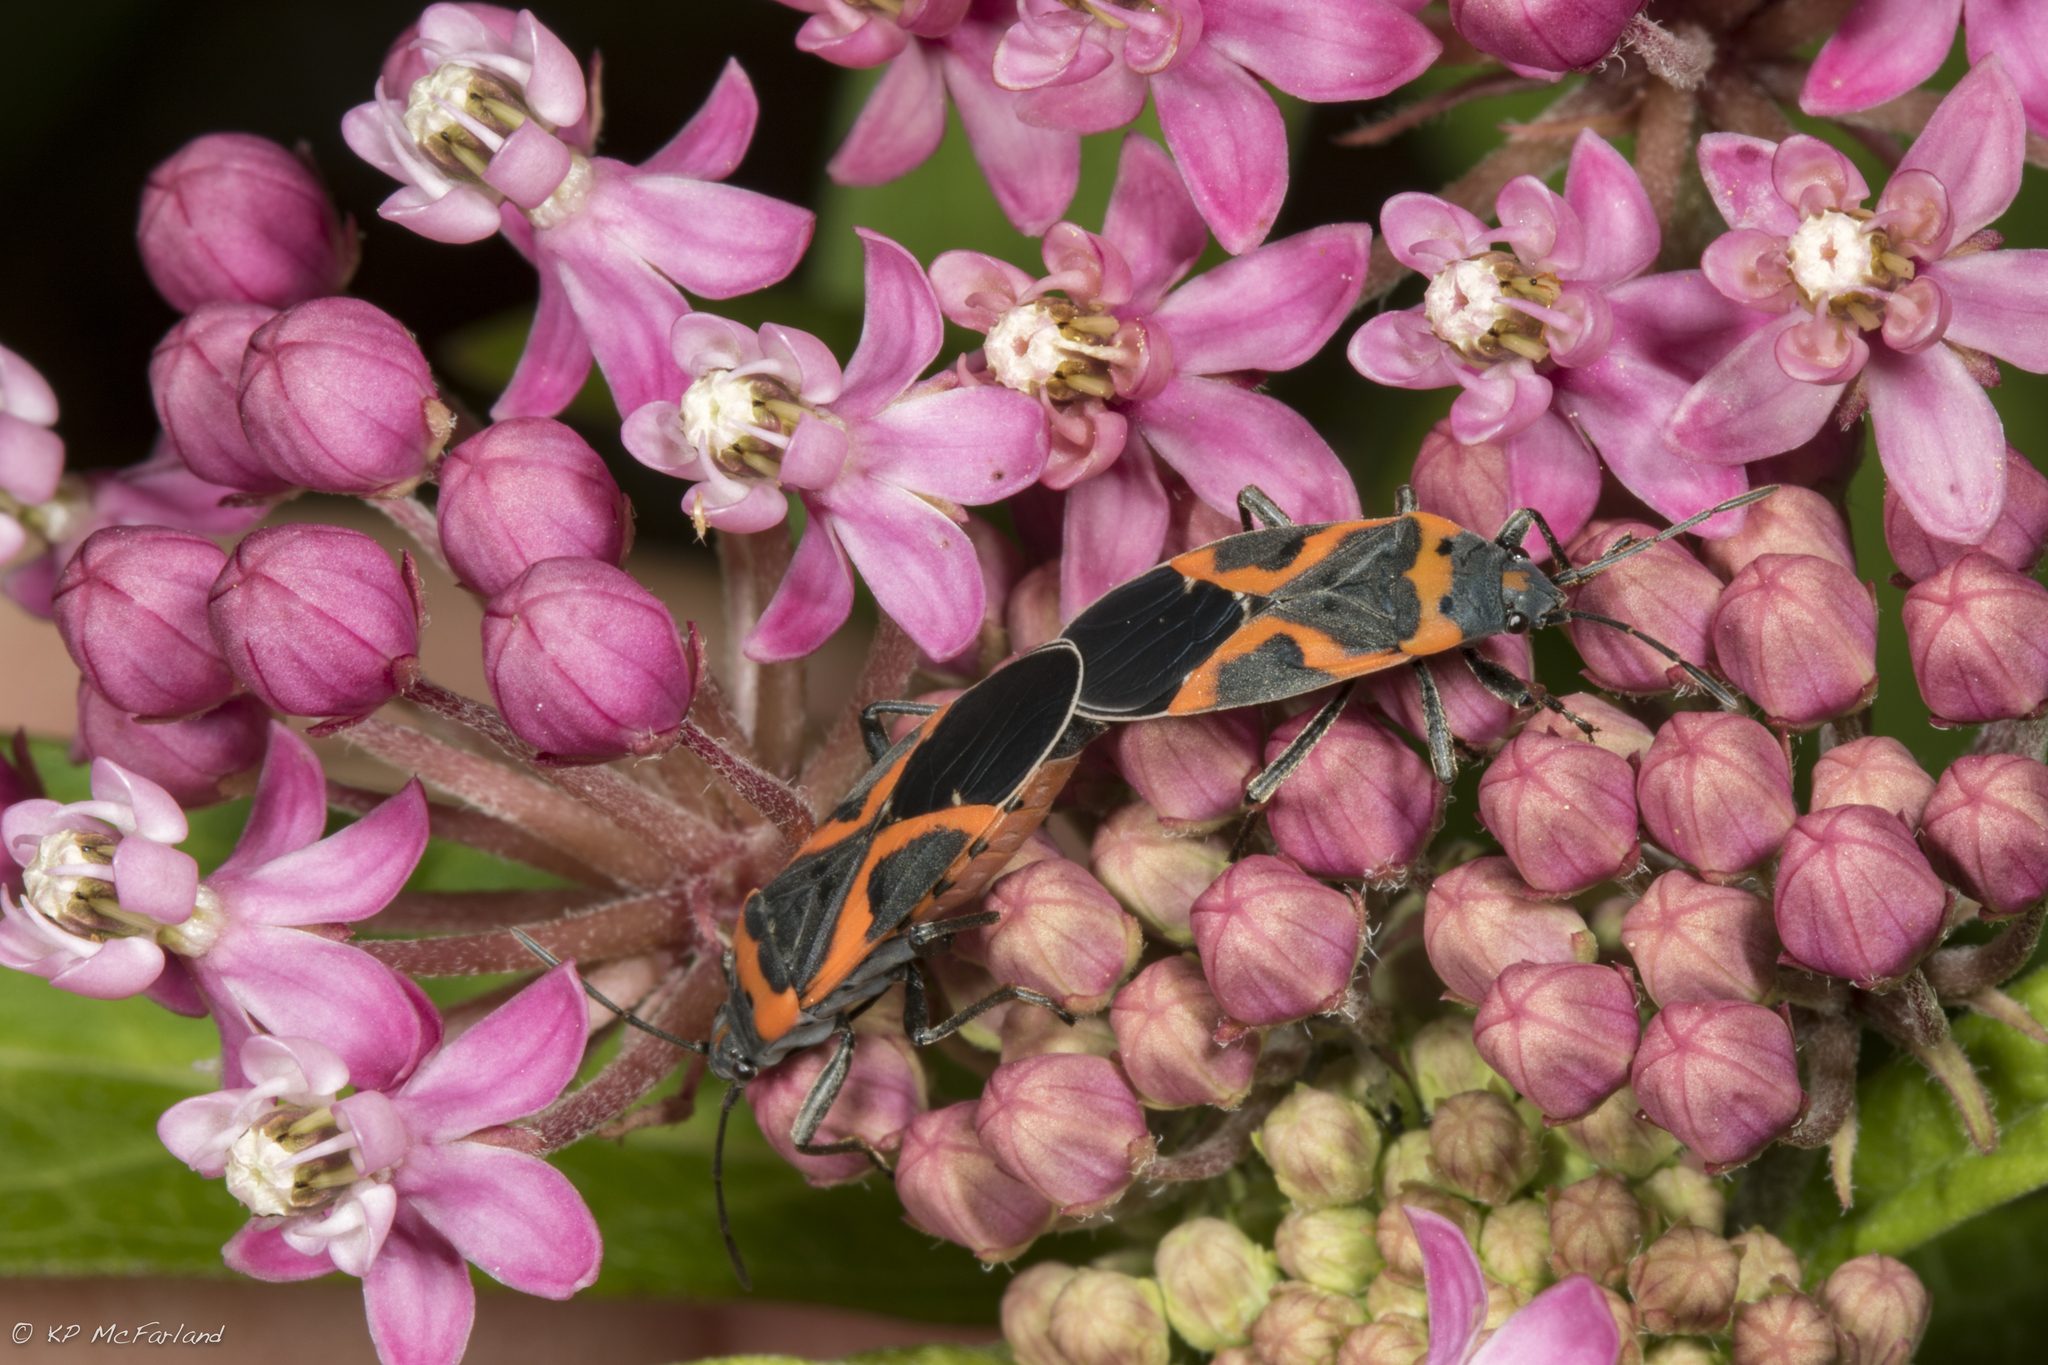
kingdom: Animalia
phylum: Arthropoda
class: Insecta
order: Hemiptera
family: Lygaeidae
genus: Lygaeus
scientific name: Lygaeus kalmii
